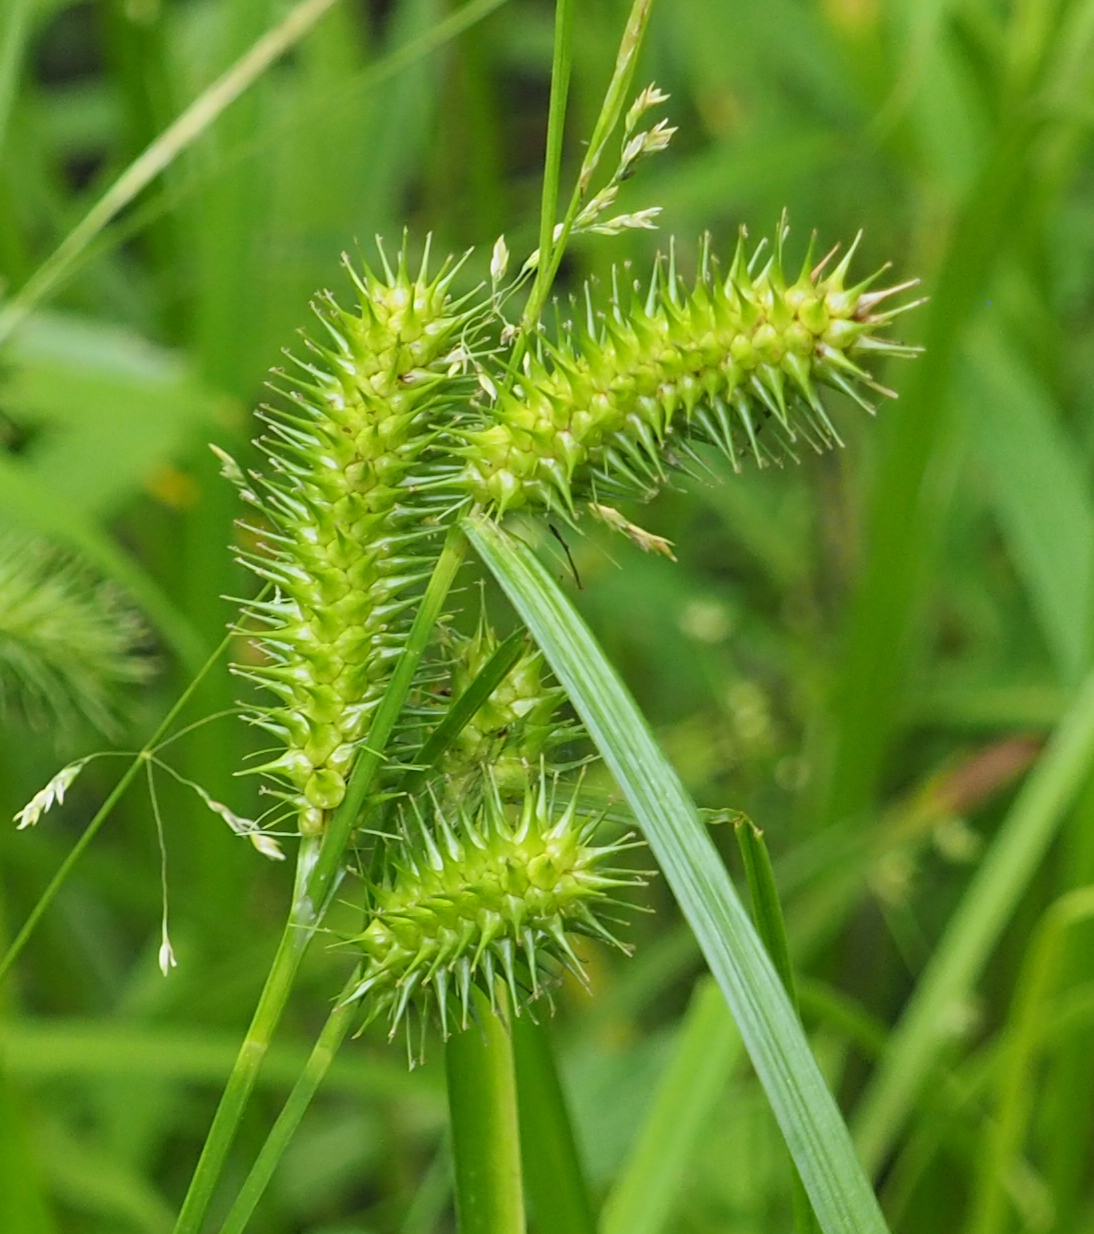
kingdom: Plantae
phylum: Tracheophyta
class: Liliopsida
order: Poales
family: Cyperaceae
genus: Carex
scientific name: Carex lurida
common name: Sallow sedge
